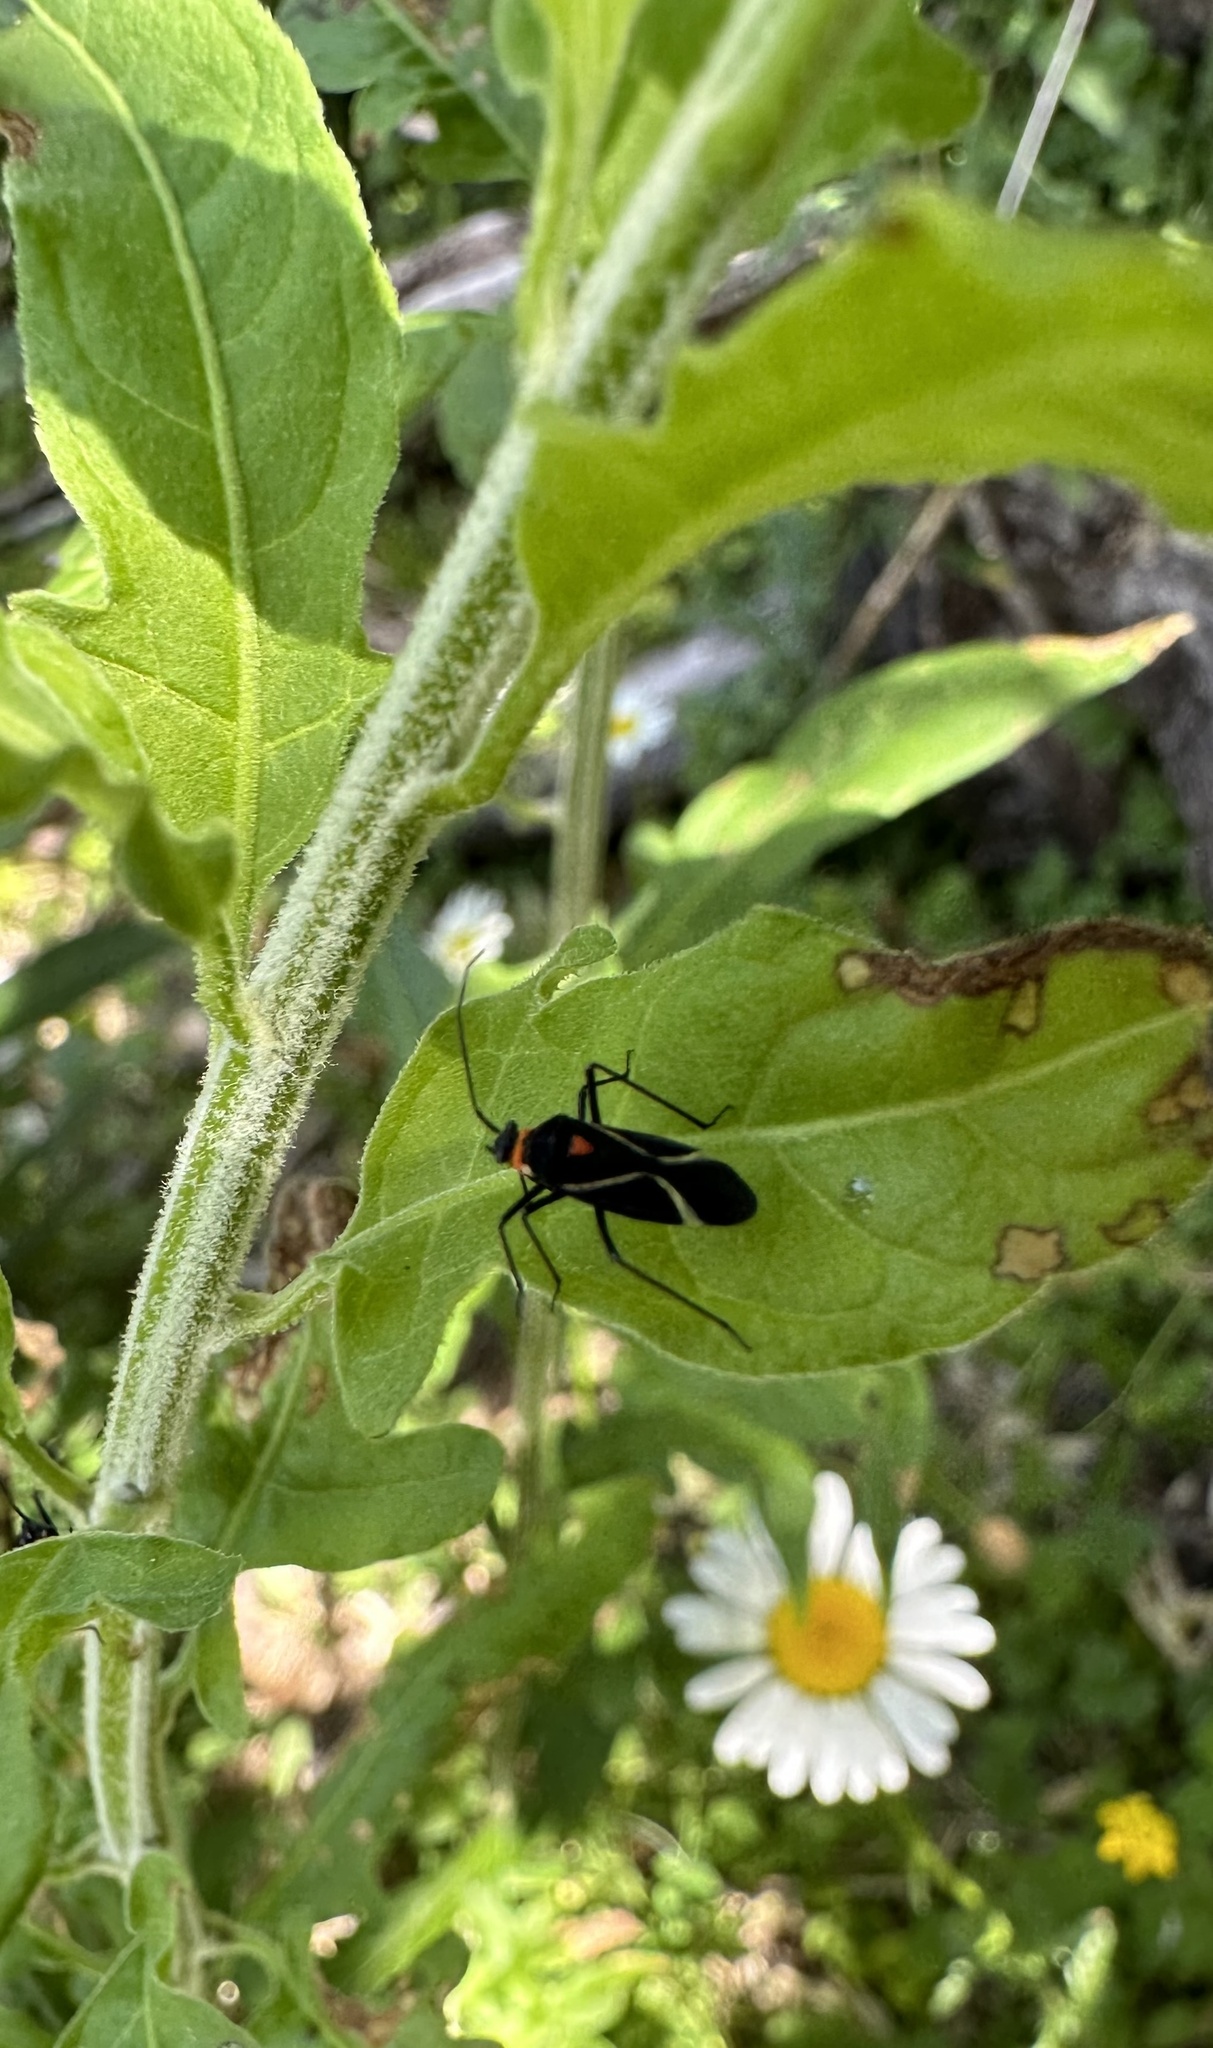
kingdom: Animalia
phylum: Arthropoda
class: Insecta
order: Hemiptera
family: Miridae
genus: Eurylomata
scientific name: Eurylomata picturata
